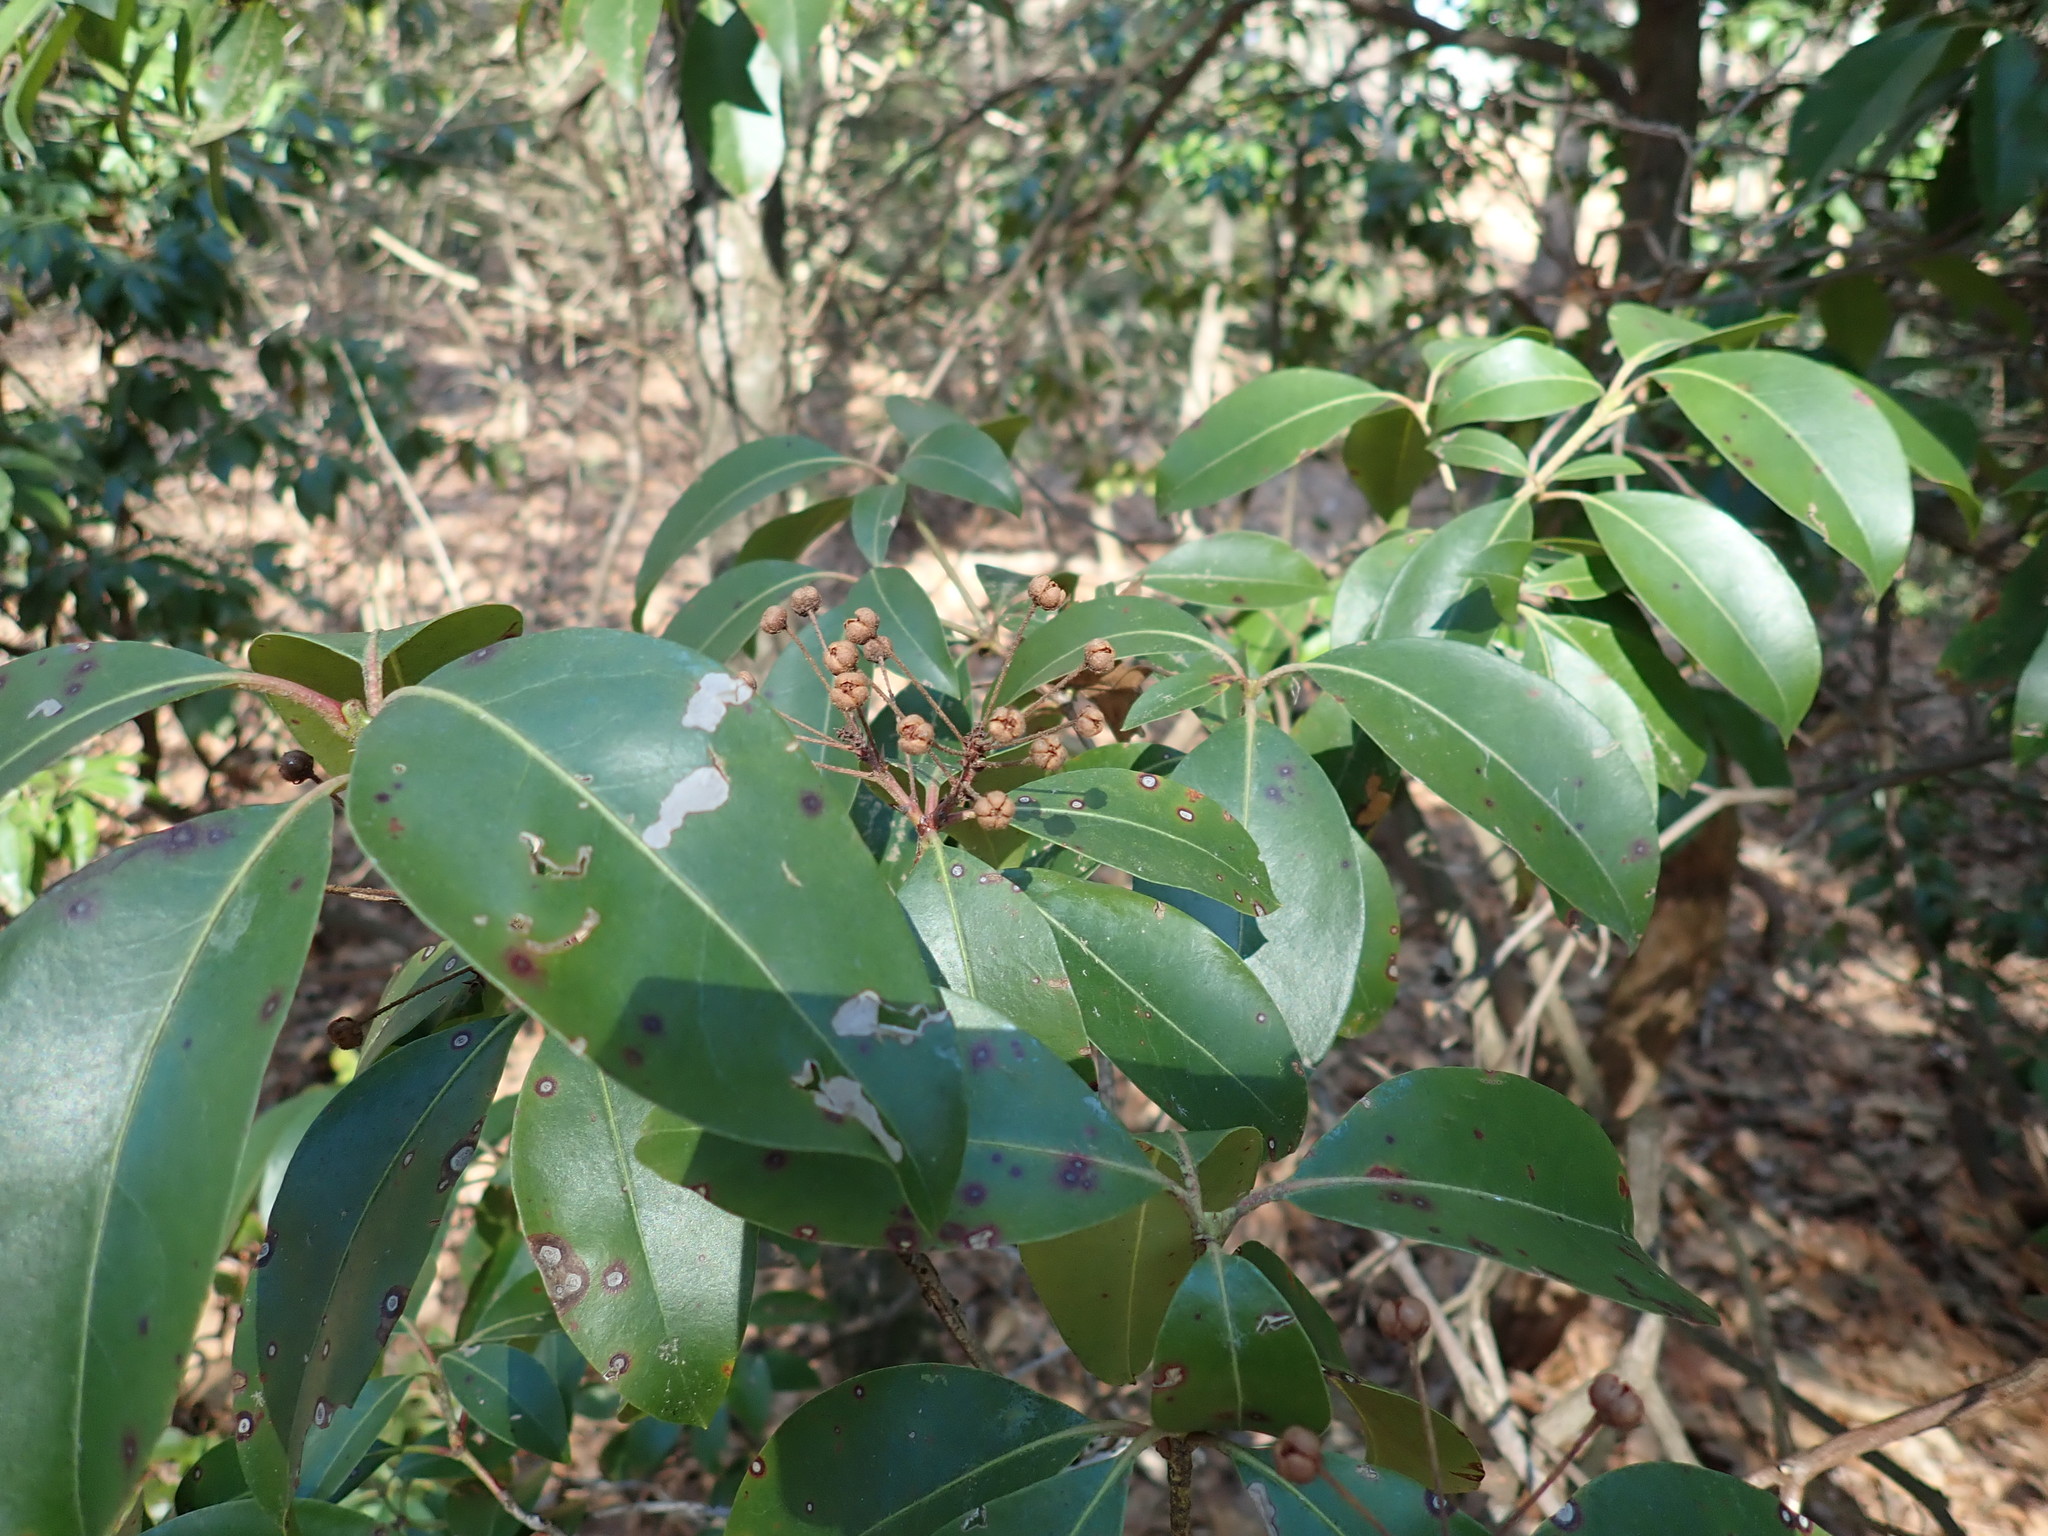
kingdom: Plantae
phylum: Tracheophyta
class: Magnoliopsida
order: Ericales
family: Ericaceae
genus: Kalmia
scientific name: Kalmia latifolia
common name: Mountain-laurel
